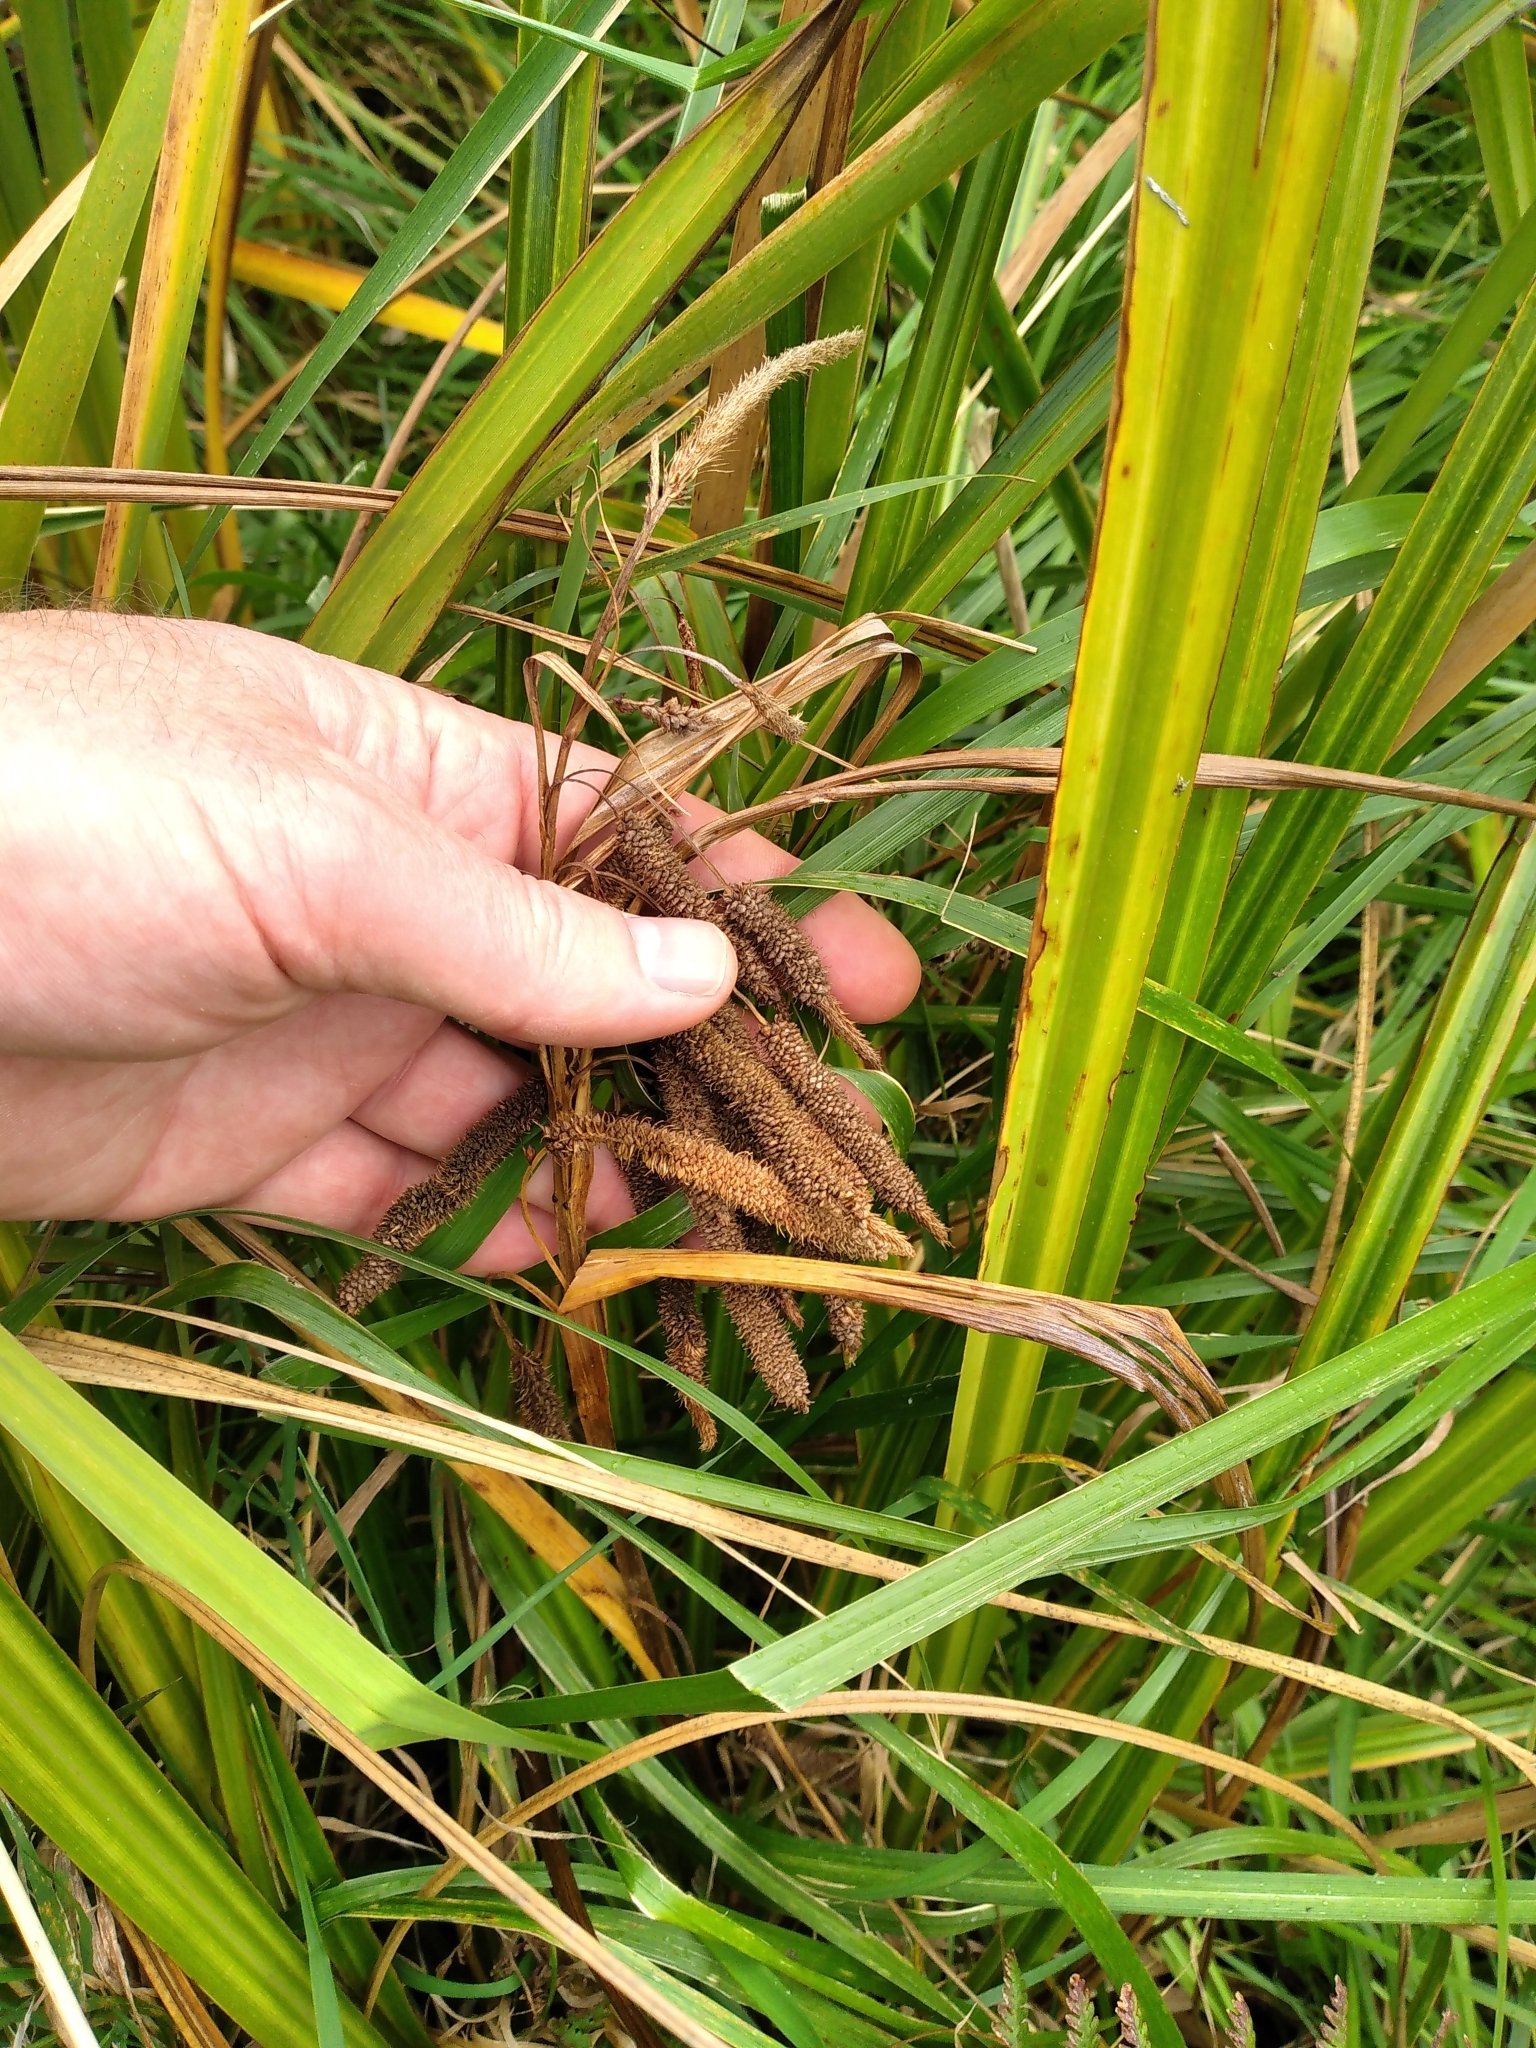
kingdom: Plantae
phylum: Tracheophyta
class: Liliopsida
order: Poales
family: Cyperaceae
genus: Carex
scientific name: Carex geminata
